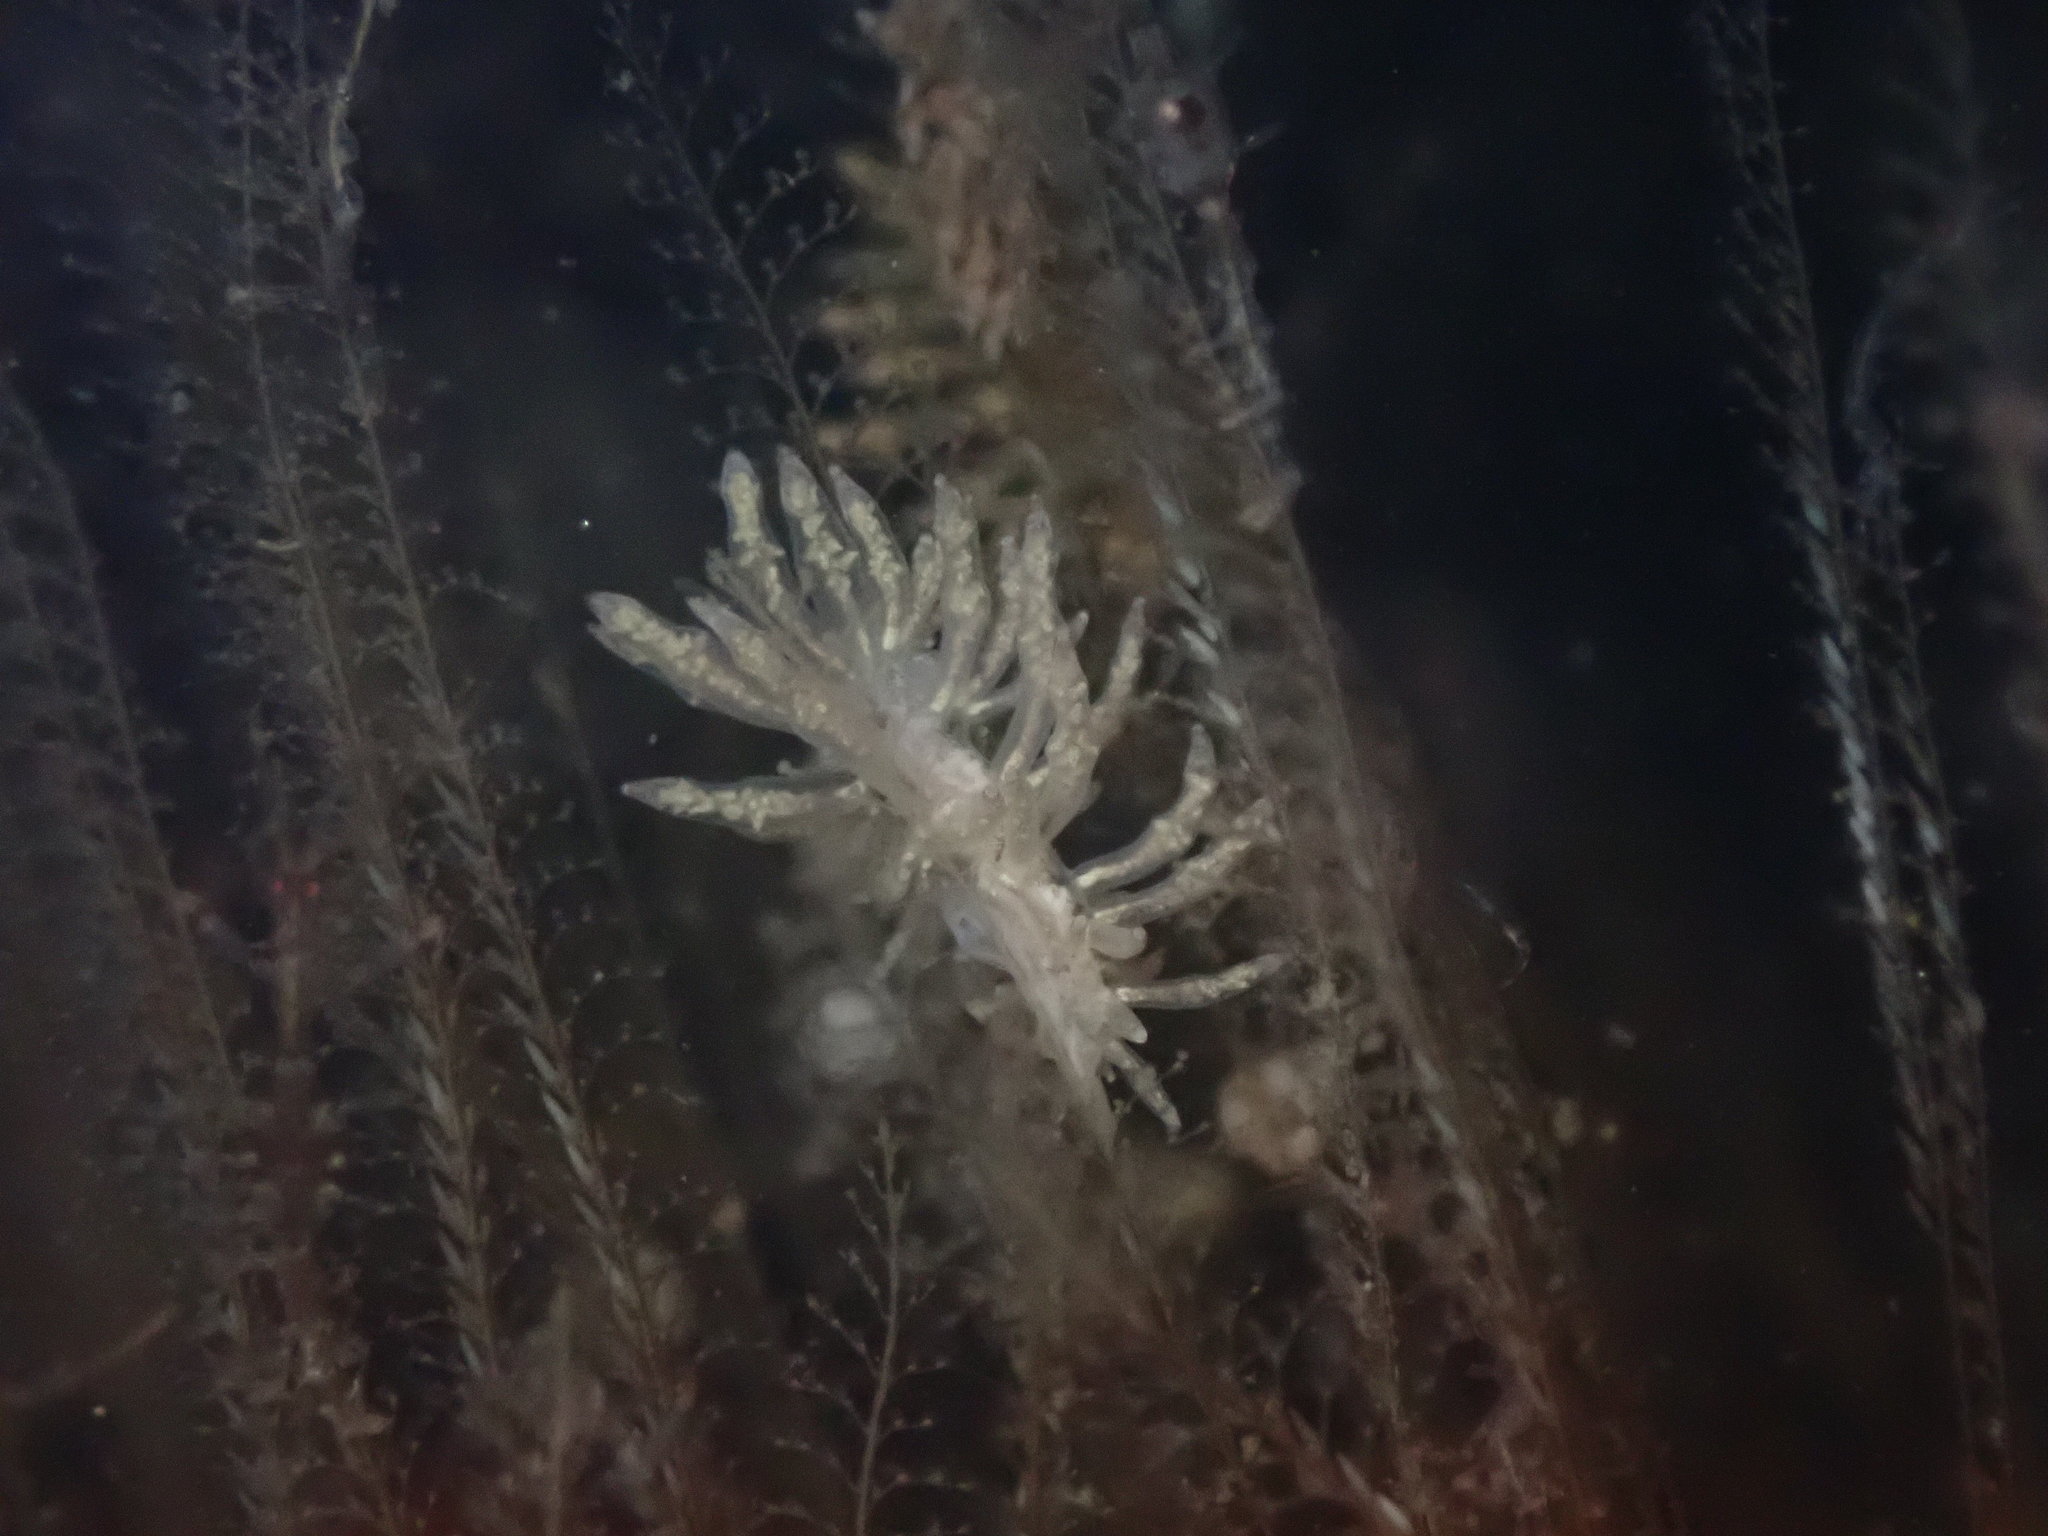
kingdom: Animalia
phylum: Mollusca
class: Gastropoda
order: Nudibranchia
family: Eubranchidae
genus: Eubranchus
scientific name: Eubranchus rustyus
